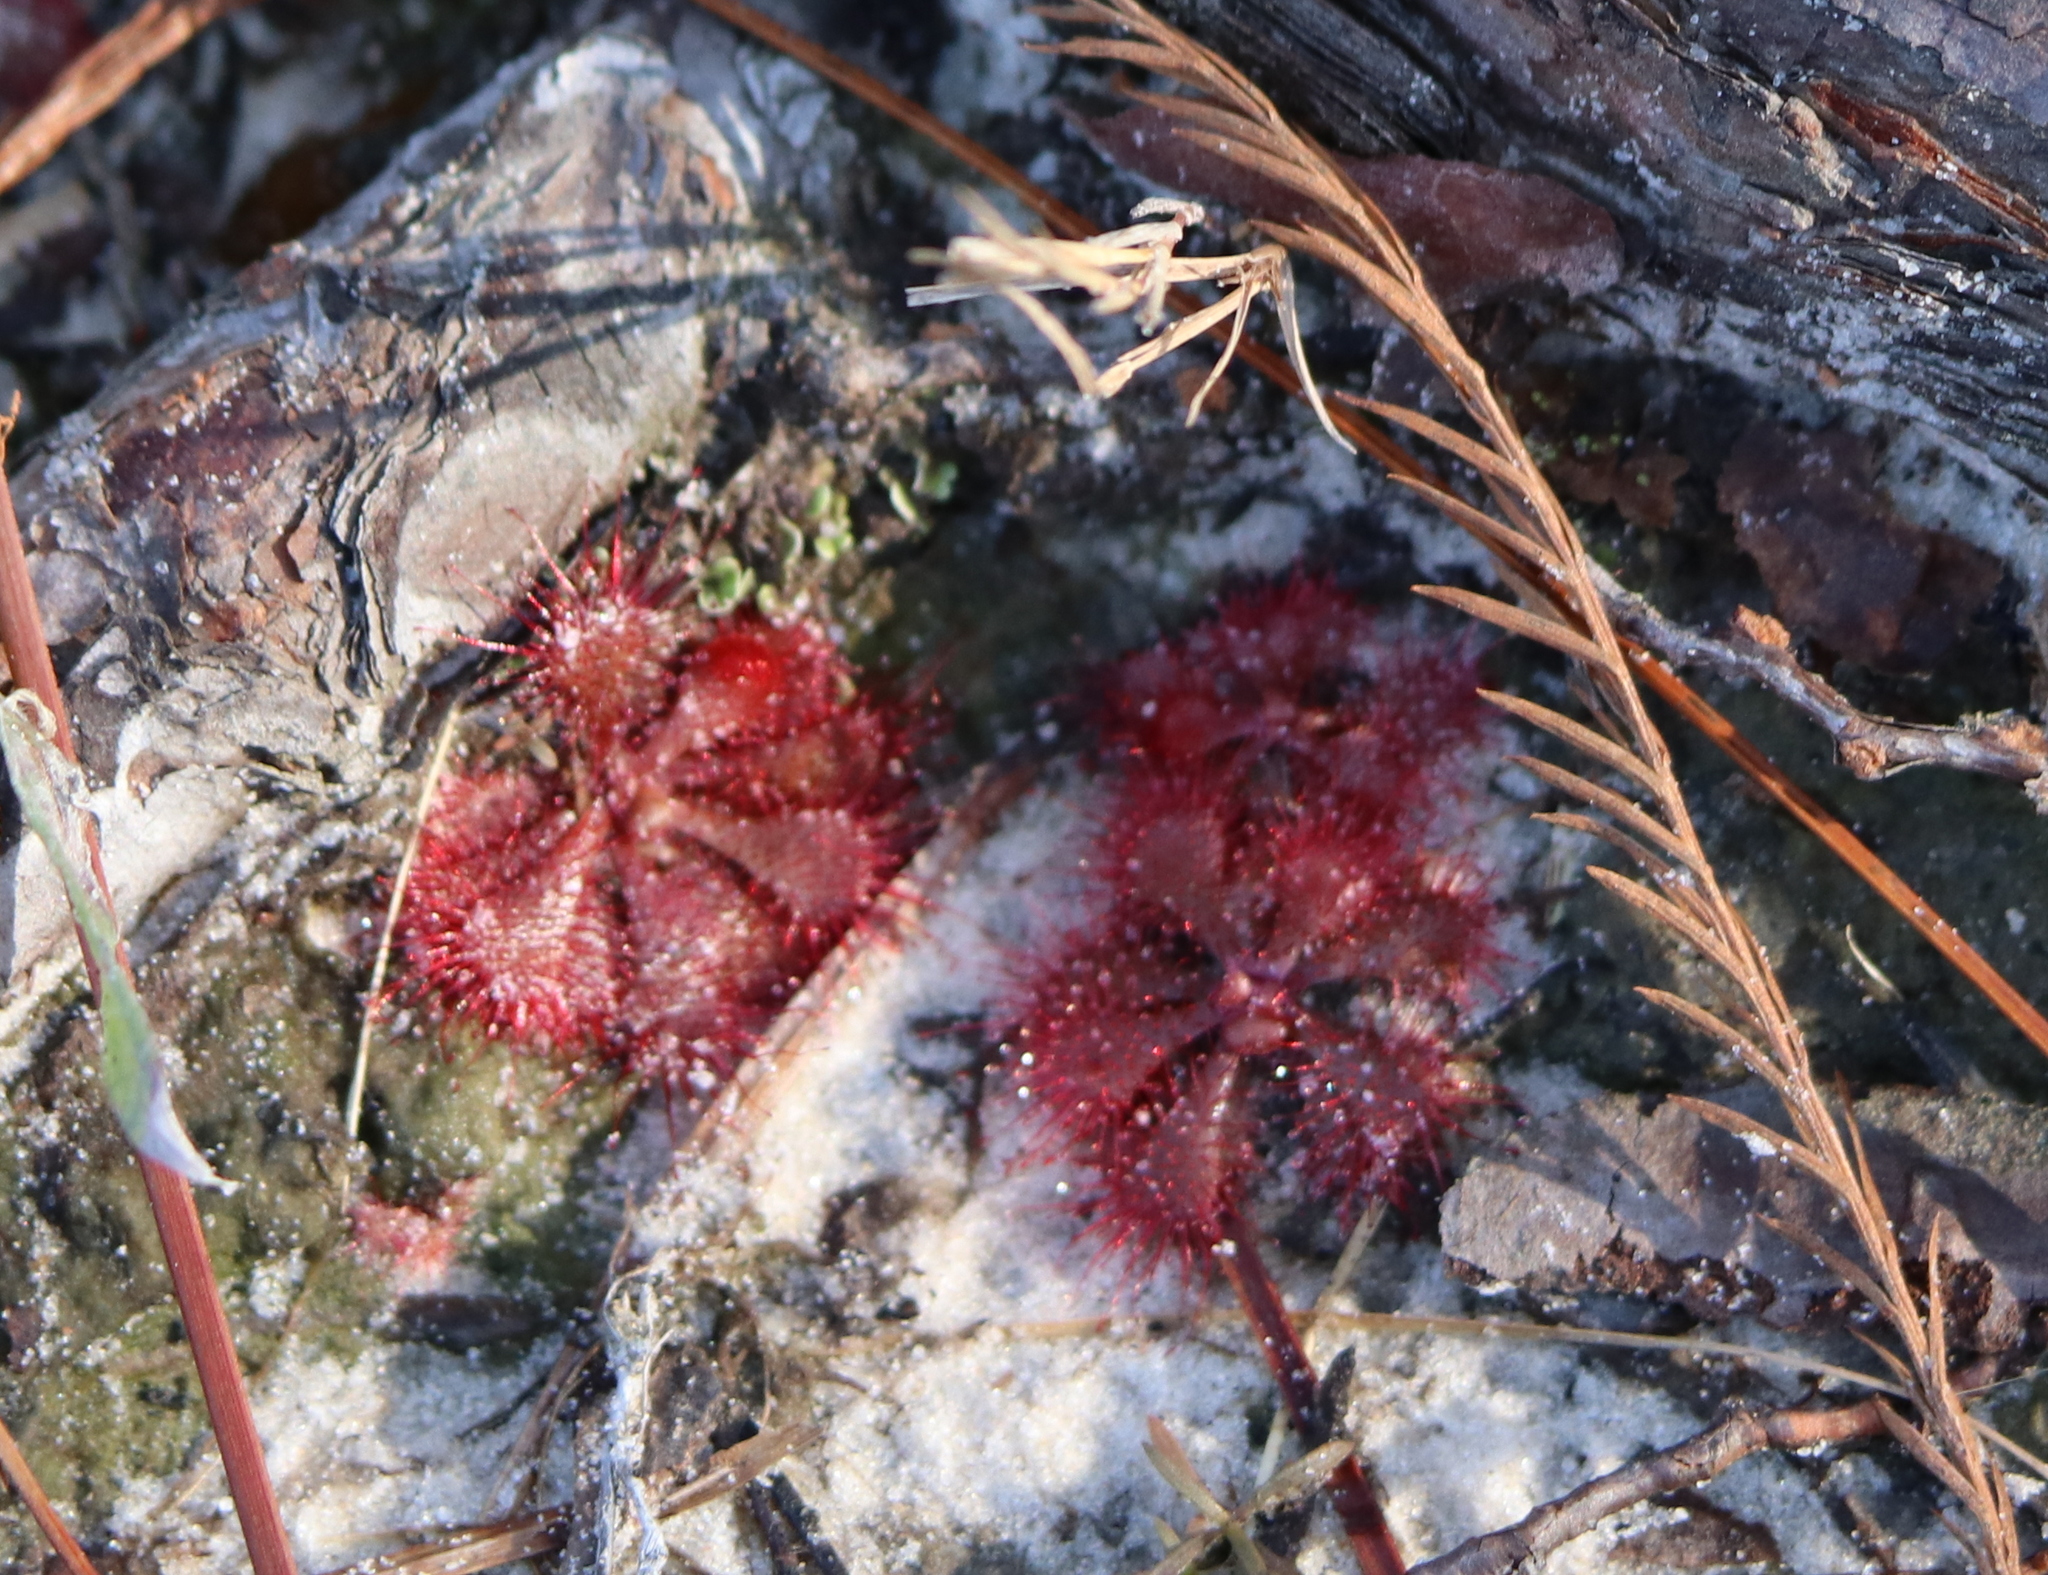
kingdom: Plantae
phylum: Tracheophyta
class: Magnoliopsida
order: Caryophyllales
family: Droseraceae
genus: Drosera
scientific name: Drosera brevifolia
